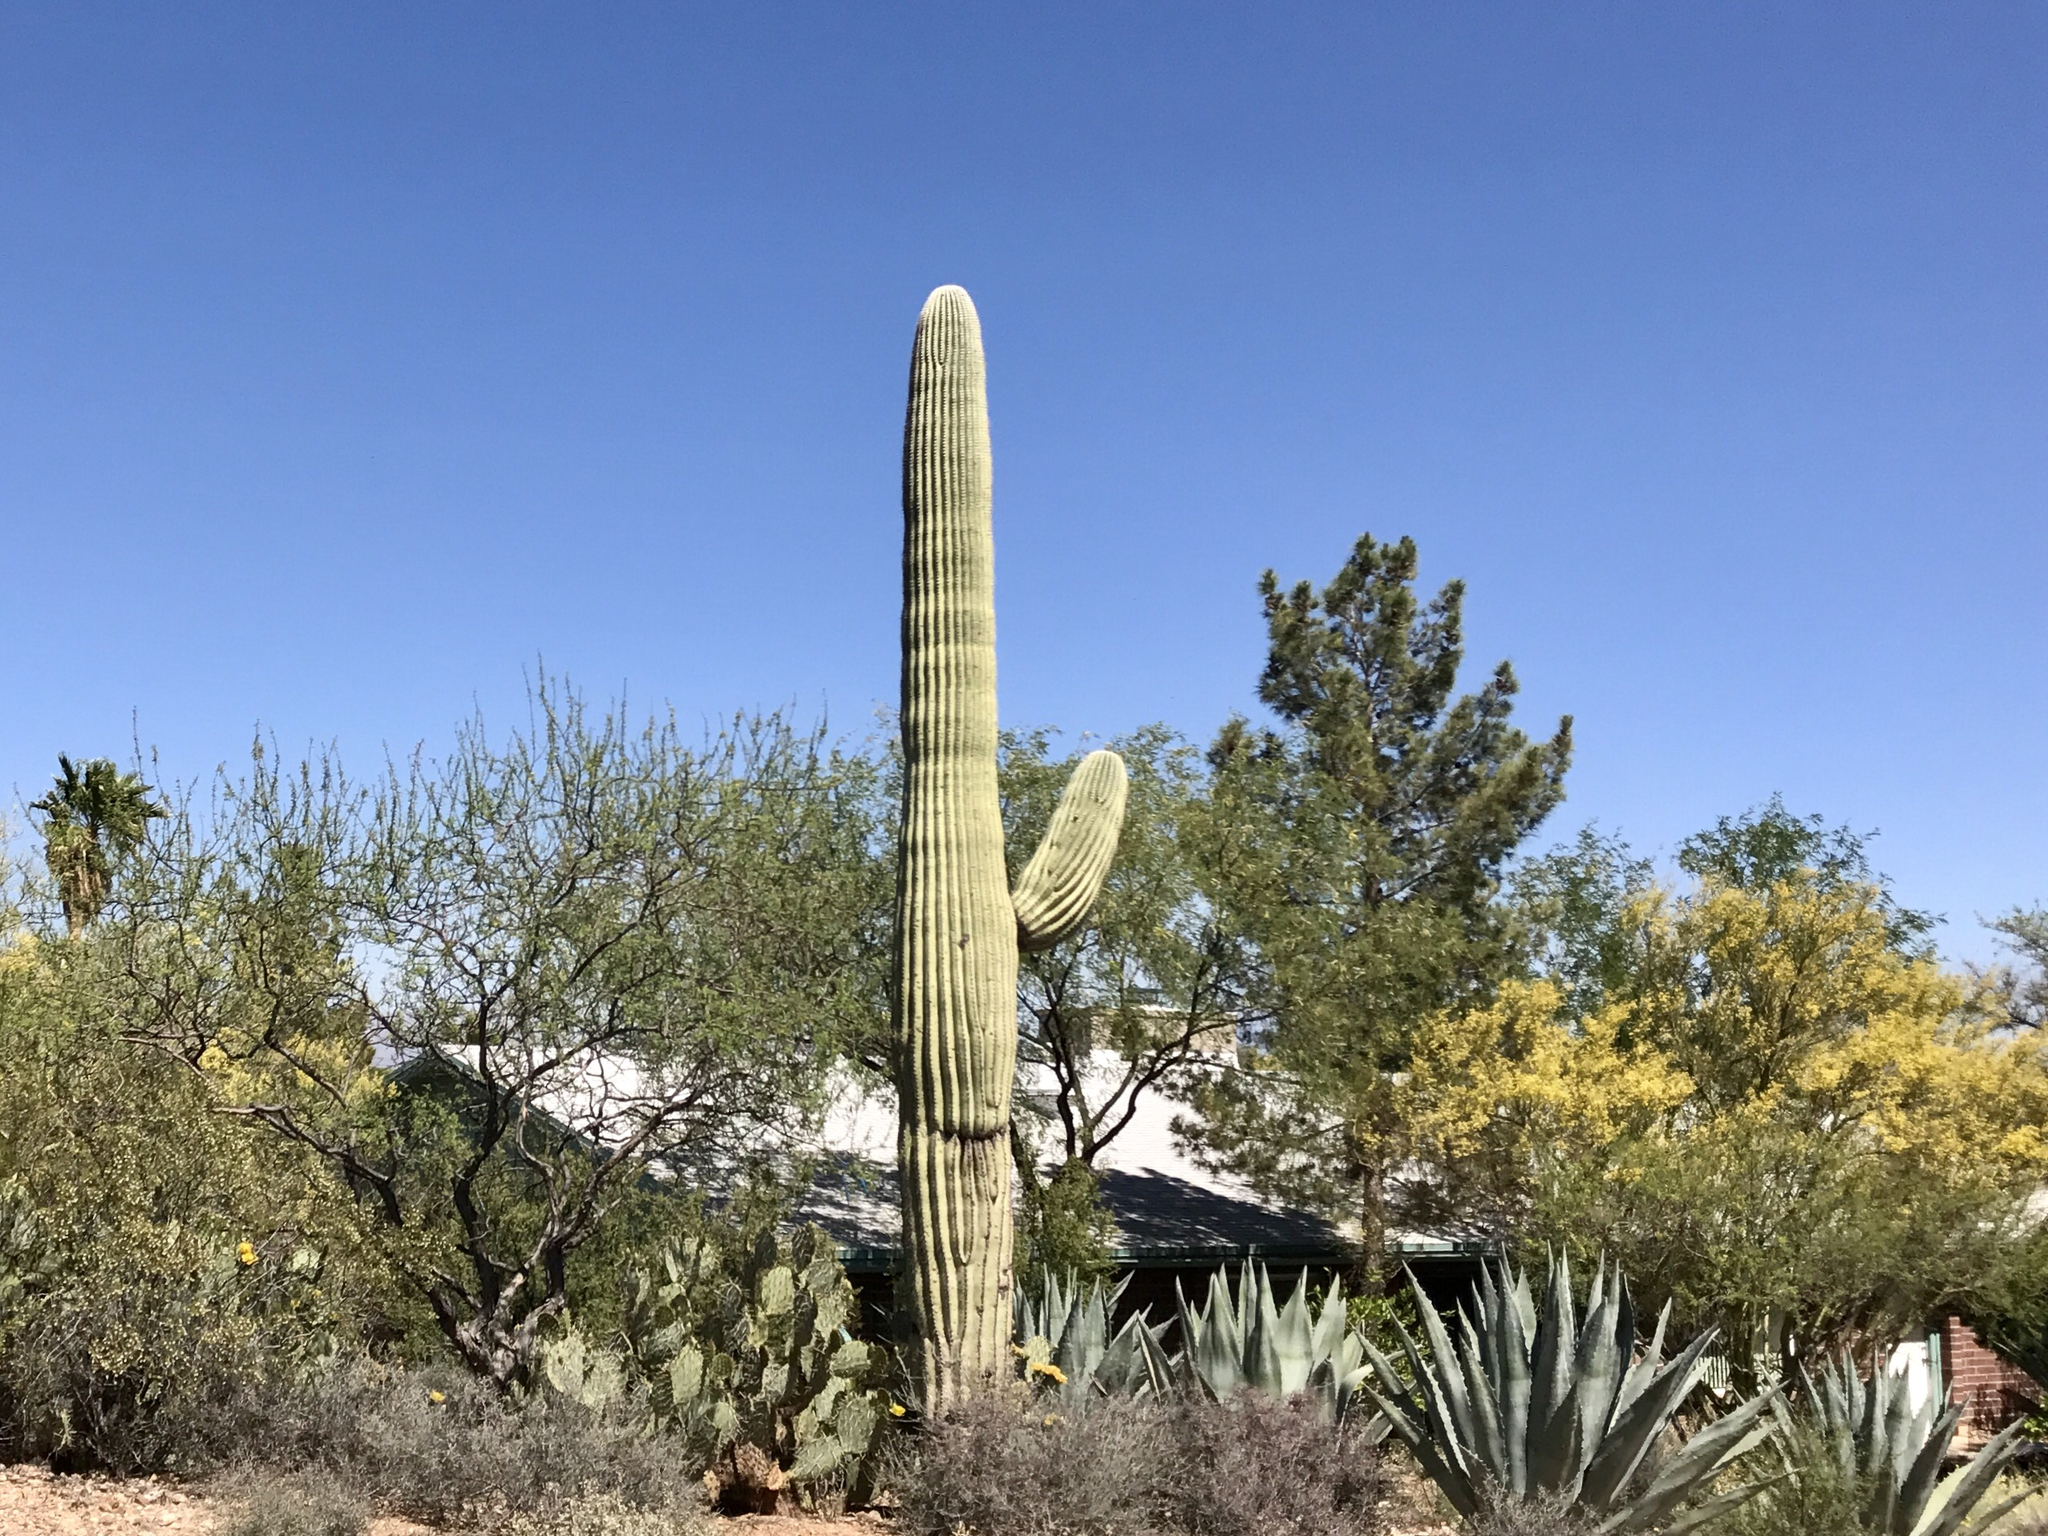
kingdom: Plantae
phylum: Tracheophyta
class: Magnoliopsida
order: Caryophyllales
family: Cactaceae
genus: Carnegiea
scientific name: Carnegiea gigantea
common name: Saguaro
